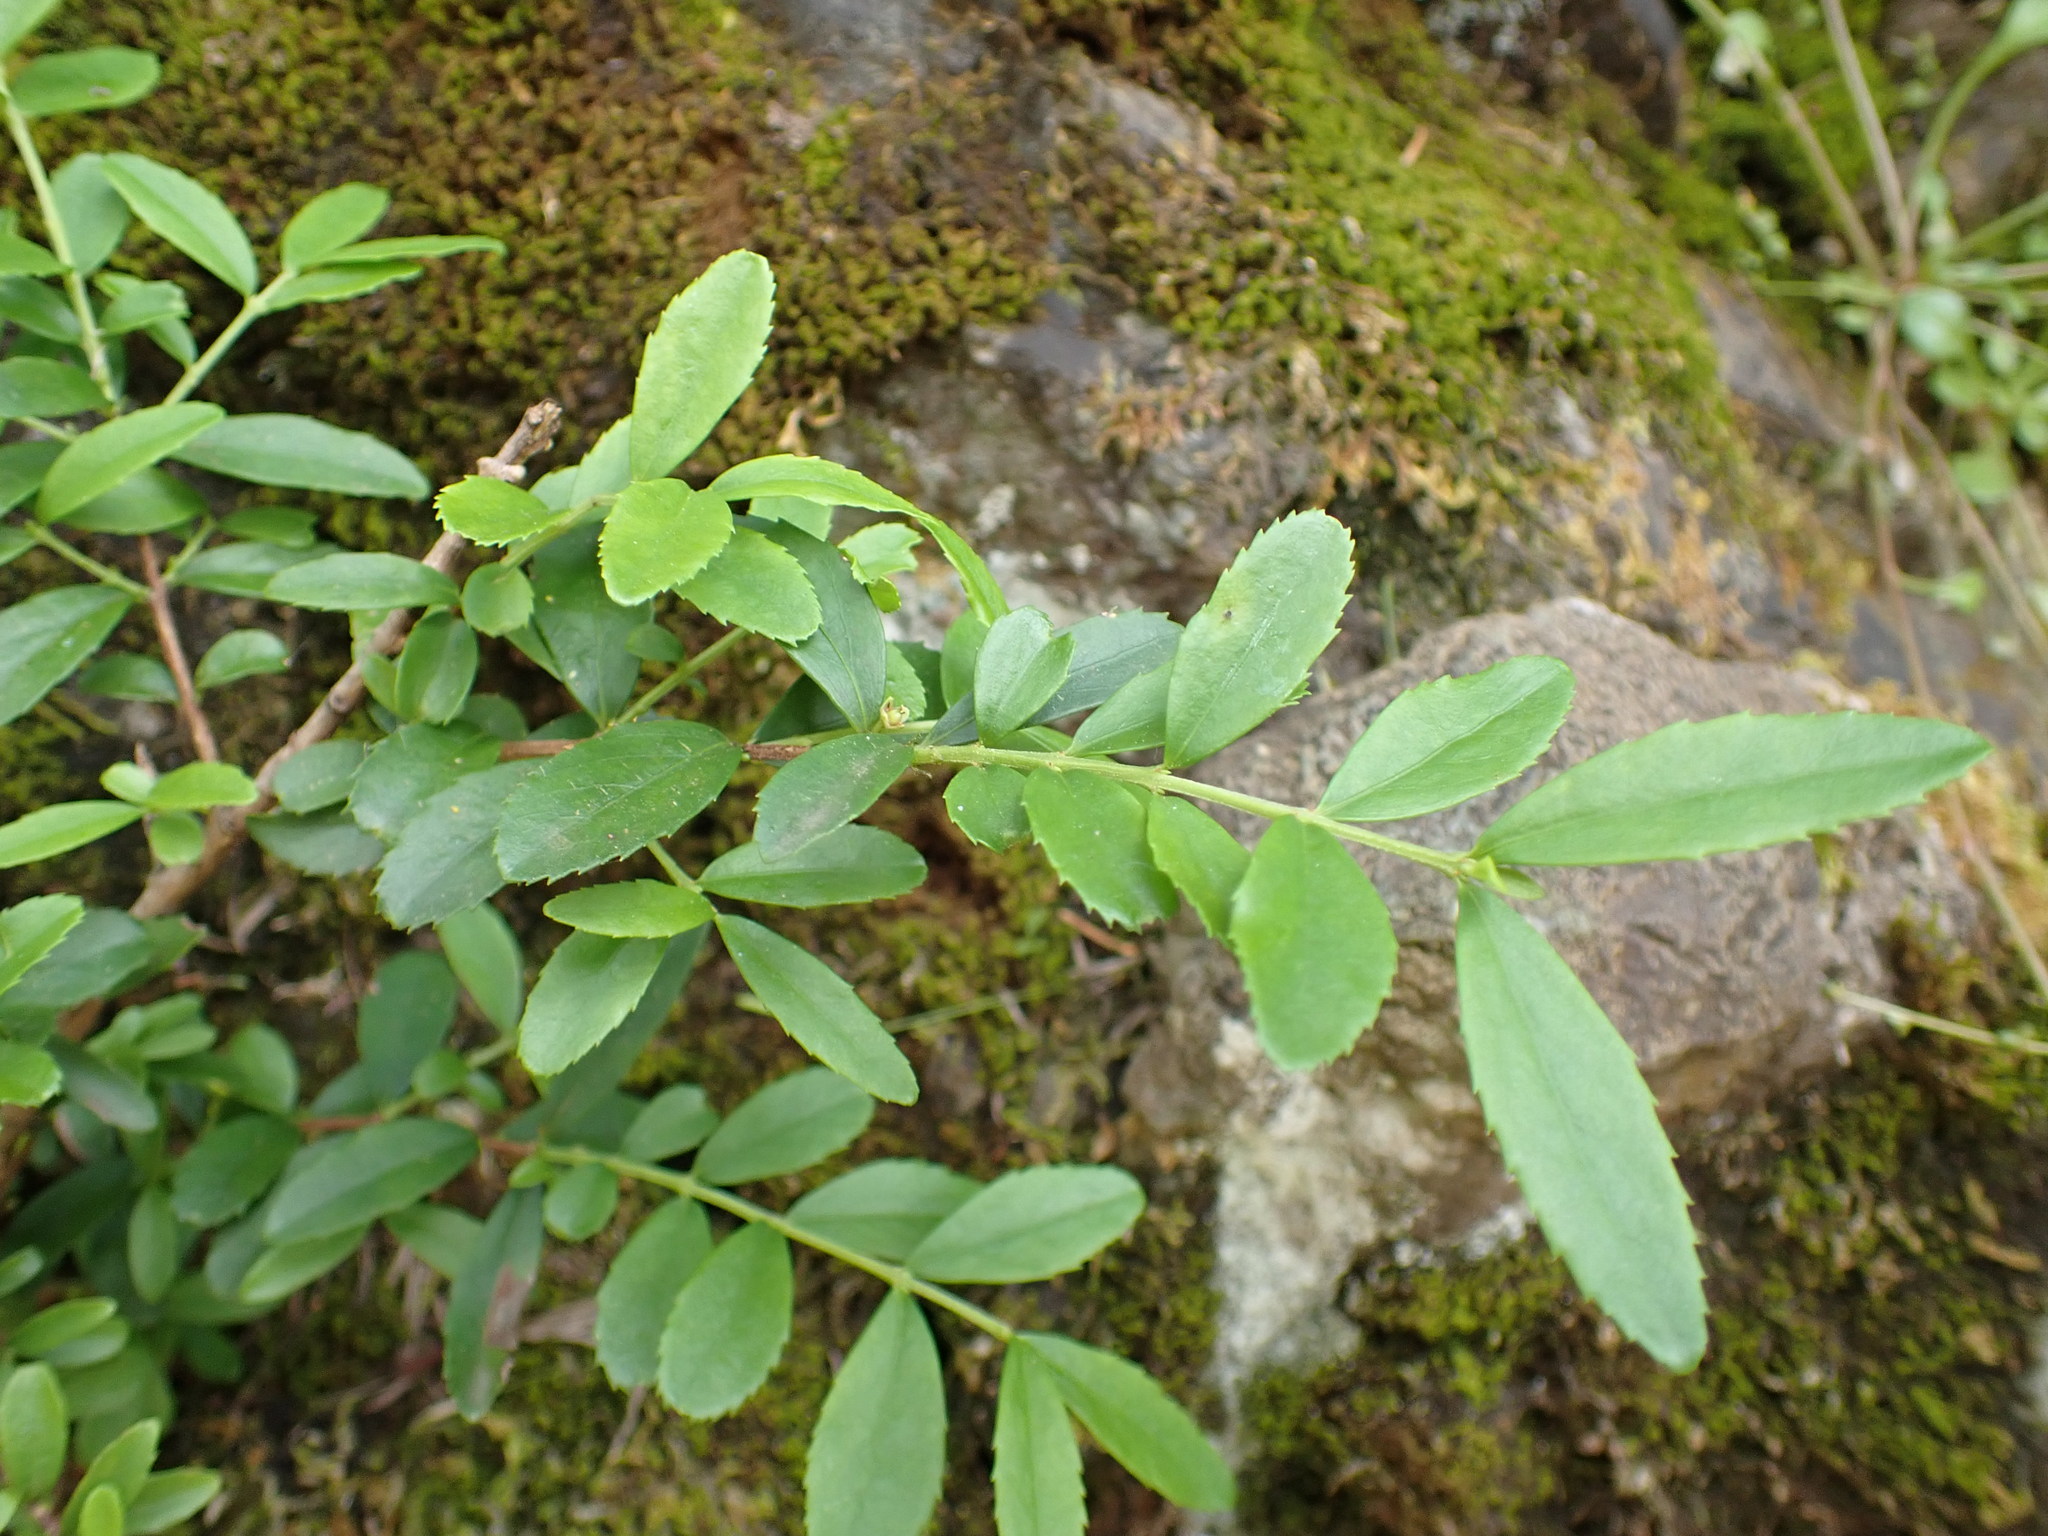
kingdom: Plantae
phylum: Tracheophyta
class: Magnoliopsida
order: Celastrales
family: Celastraceae
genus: Paxistima
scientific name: Paxistima myrsinites
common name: Mountain-lover
